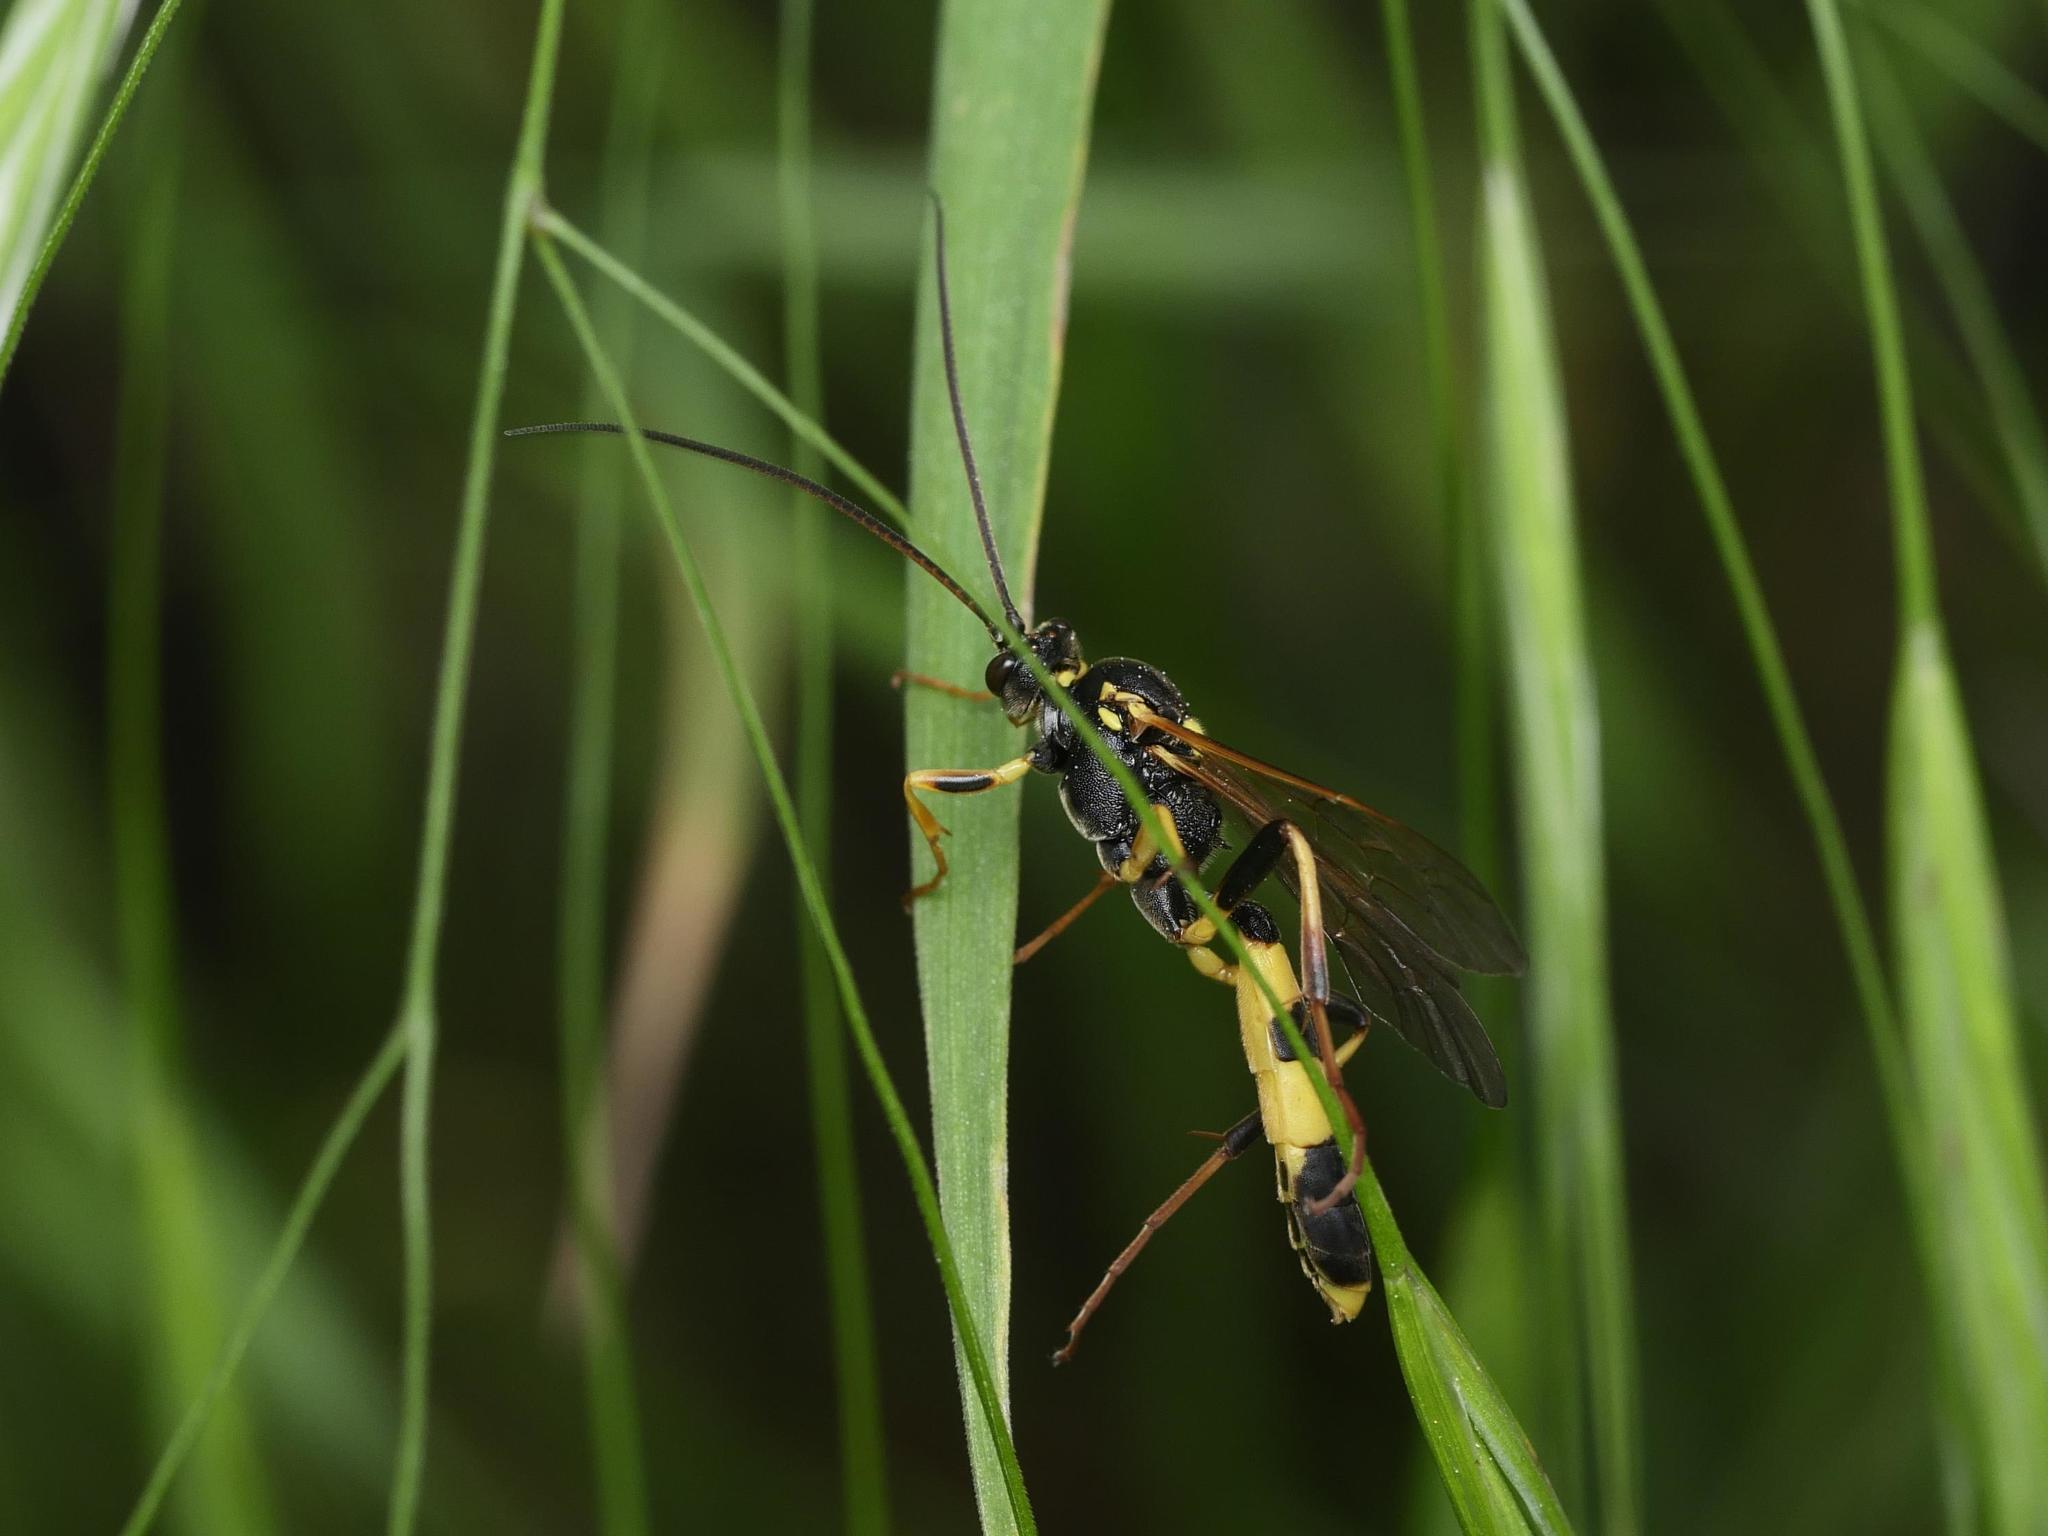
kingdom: Animalia
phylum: Arthropoda
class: Insecta
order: Hymenoptera
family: Ichneumonidae
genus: Amblyteles
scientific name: Amblyteles armatorius
